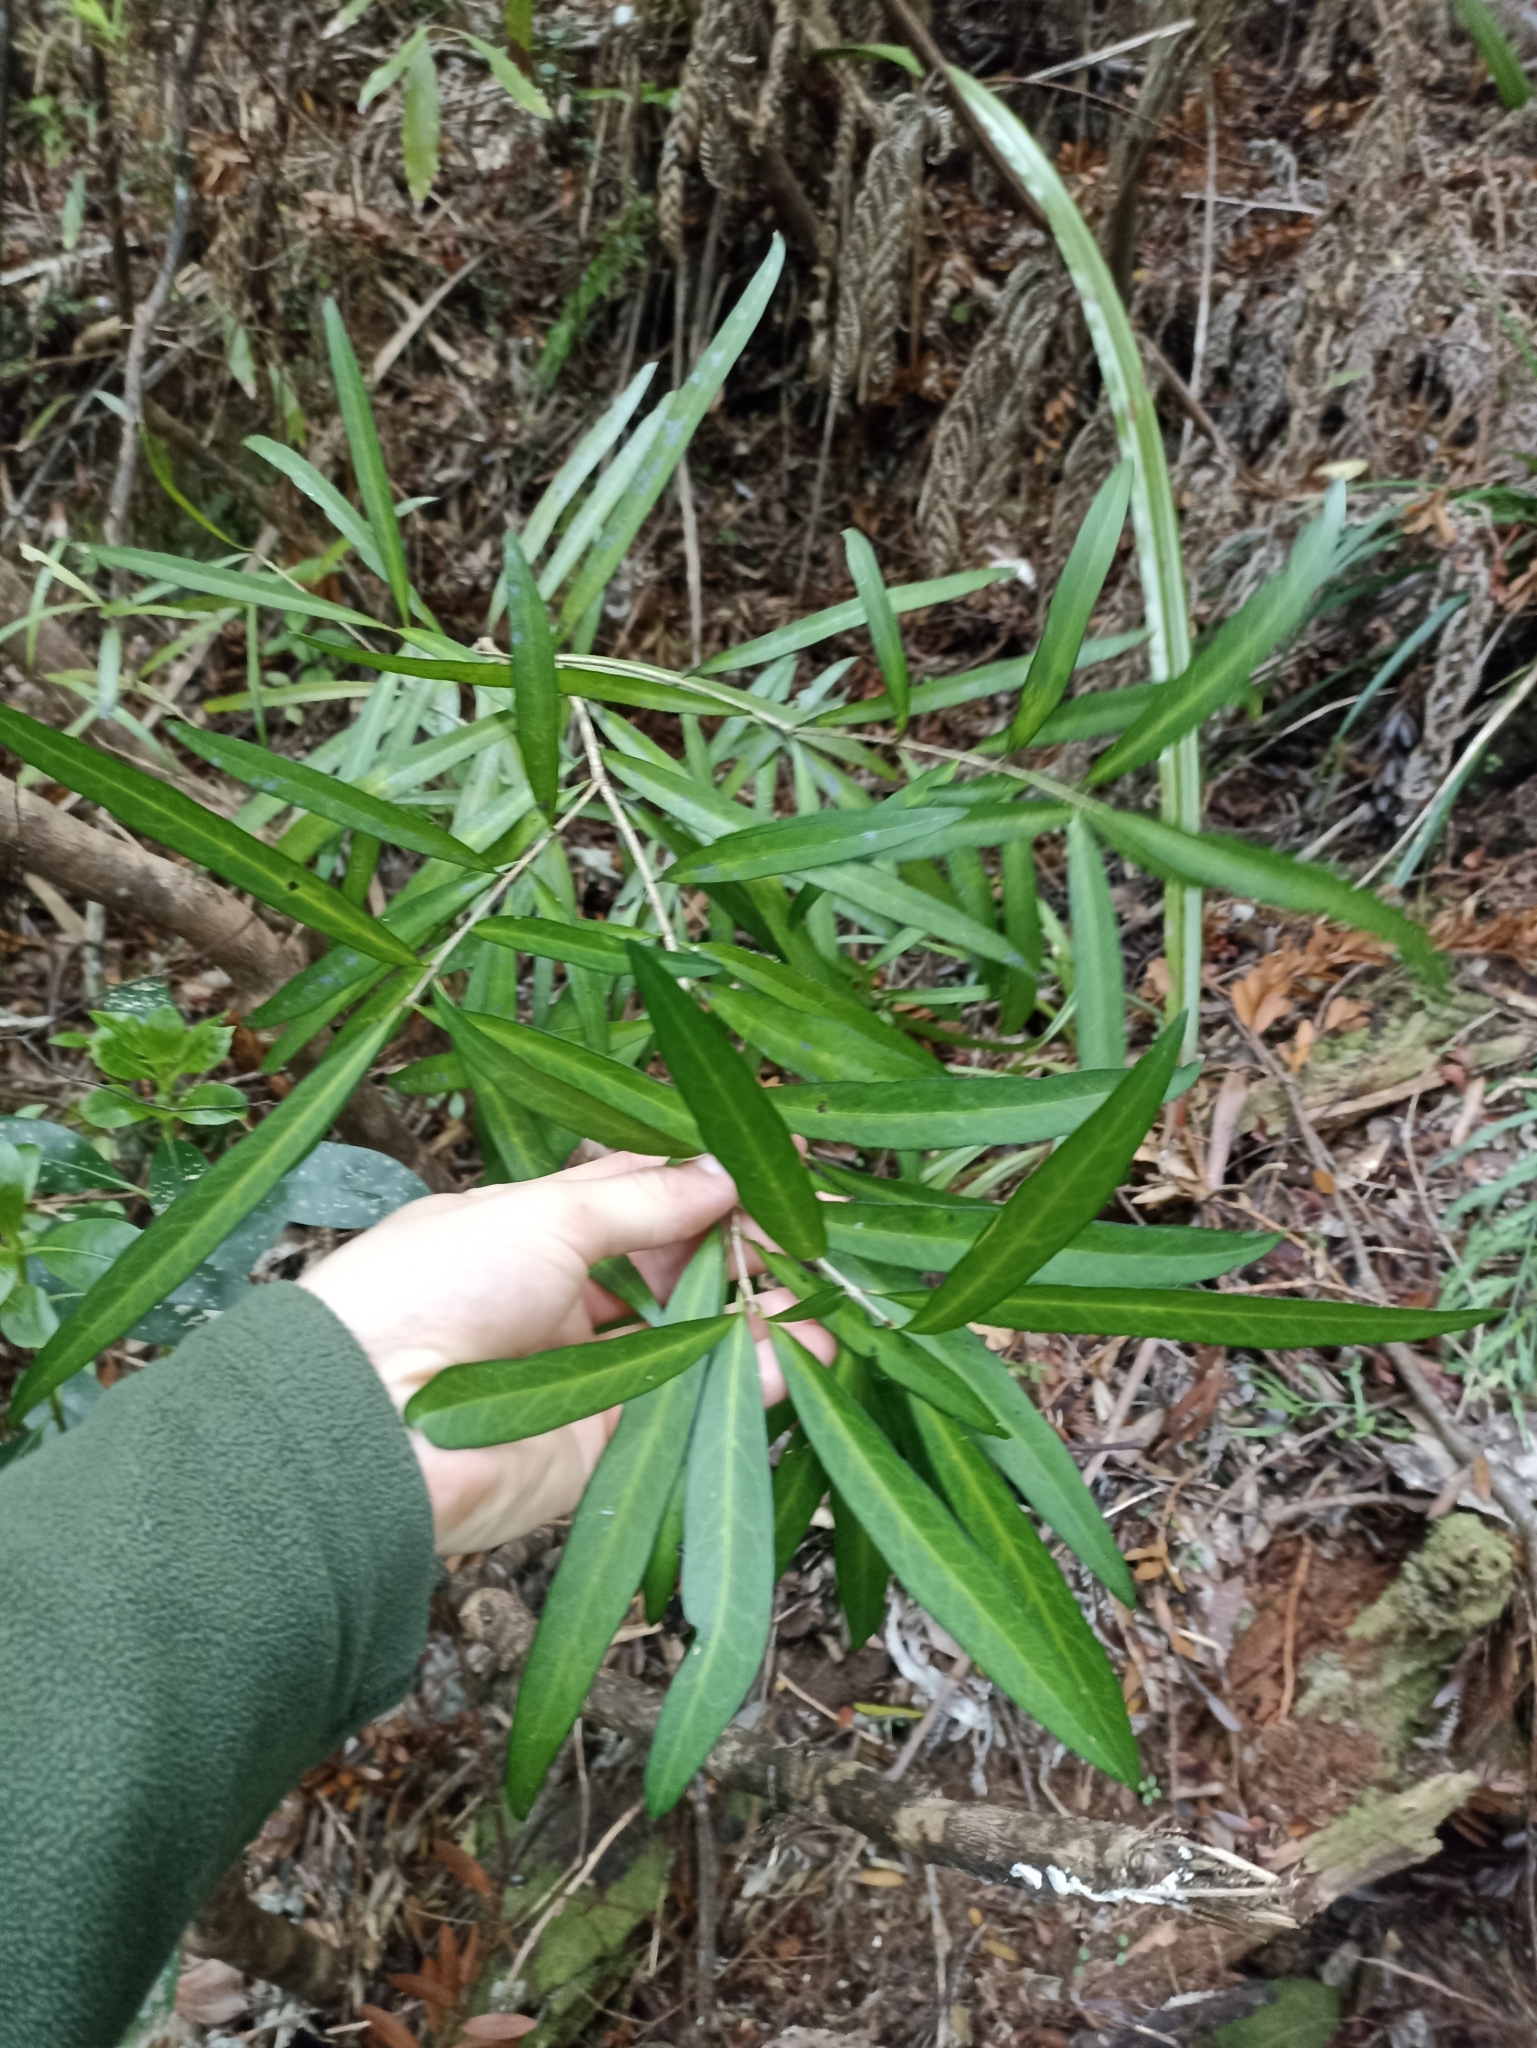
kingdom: Plantae
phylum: Tracheophyta
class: Magnoliopsida
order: Lamiales
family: Oleaceae
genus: Nestegis
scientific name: Nestegis lanceolata
